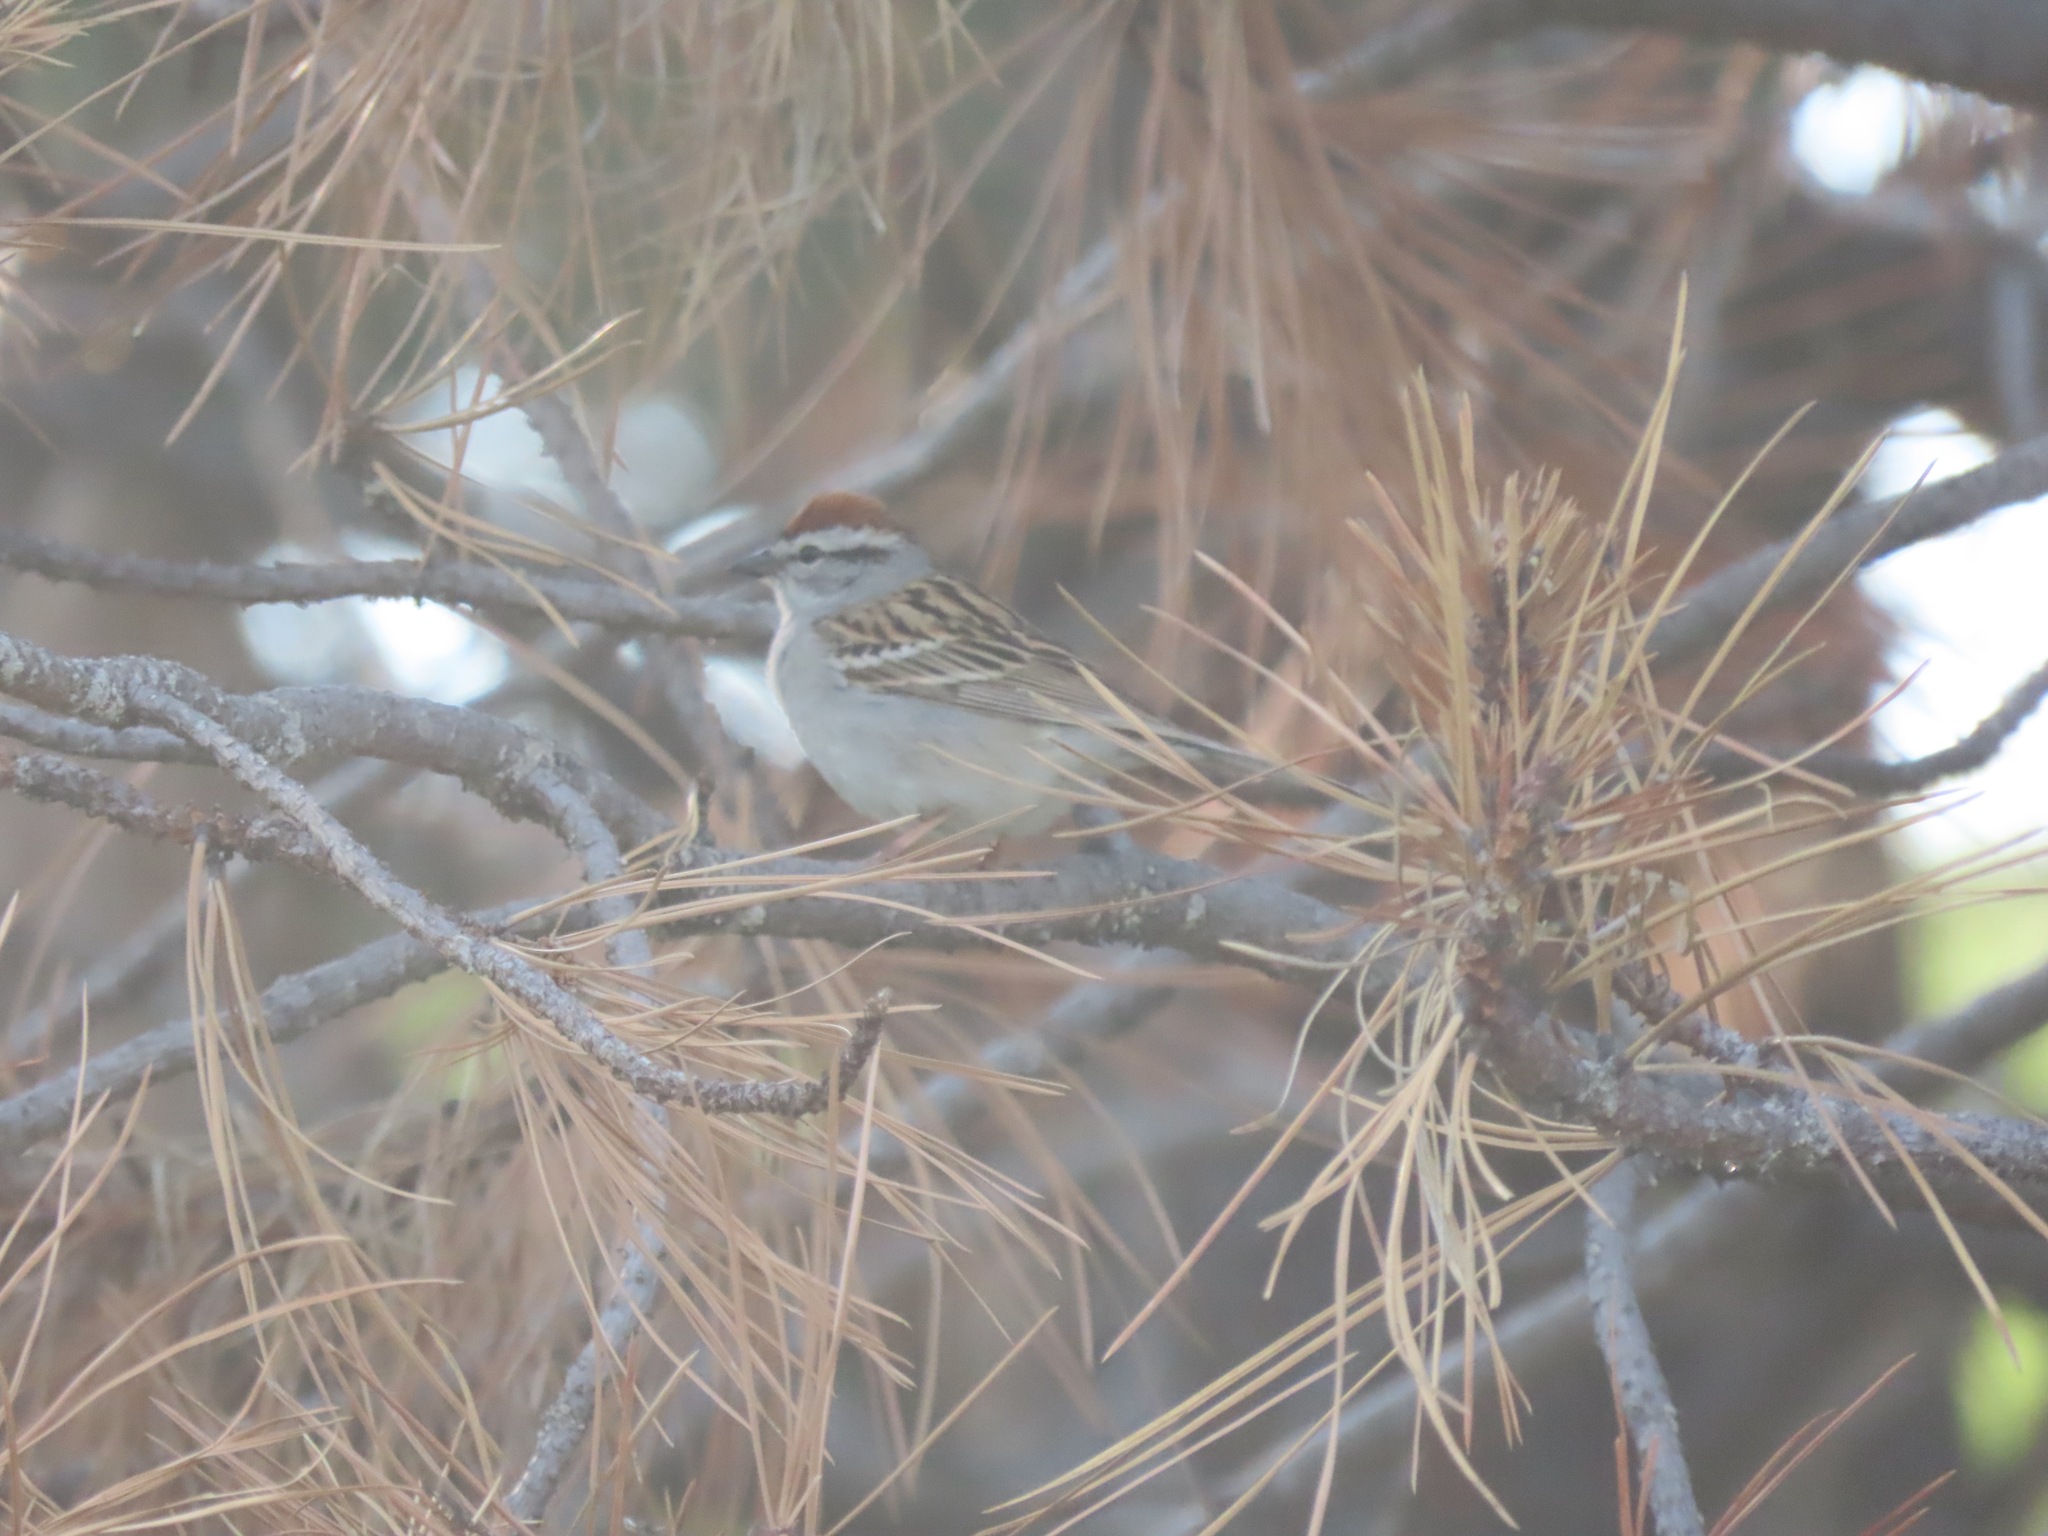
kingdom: Animalia
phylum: Chordata
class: Aves
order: Passeriformes
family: Passerellidae
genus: Spizella
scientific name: Spizella passerina
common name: Chipping sparrow
